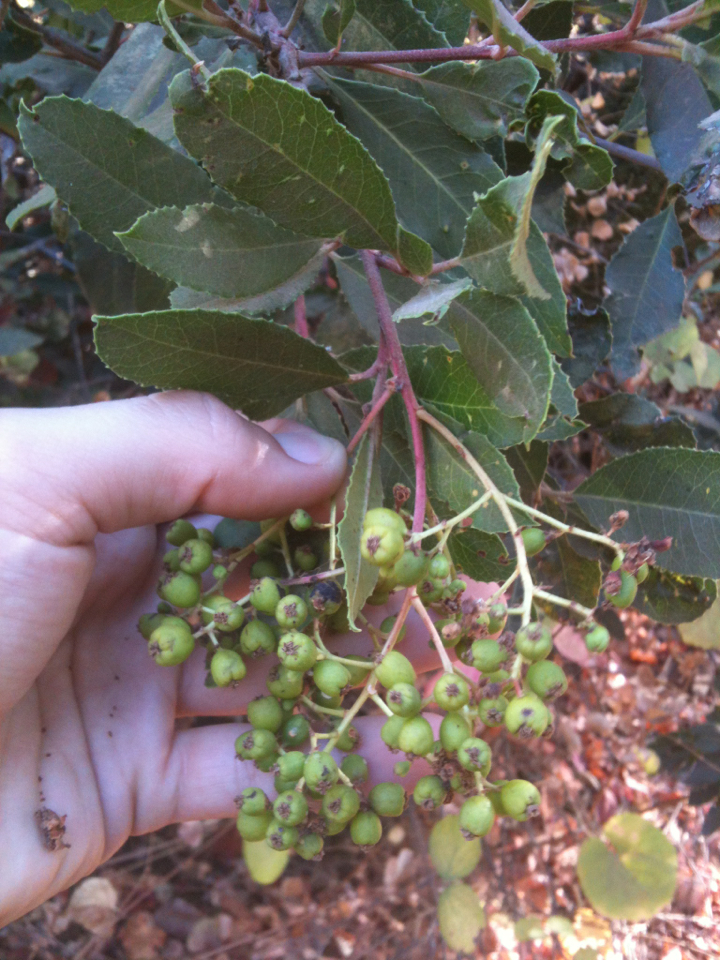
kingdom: Plantae
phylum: Tracheophyta
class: Magnoliopsida
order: Rosales
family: Rosaceae
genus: Heteromeles
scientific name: Heteromeles arbutifolia
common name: California-holly
